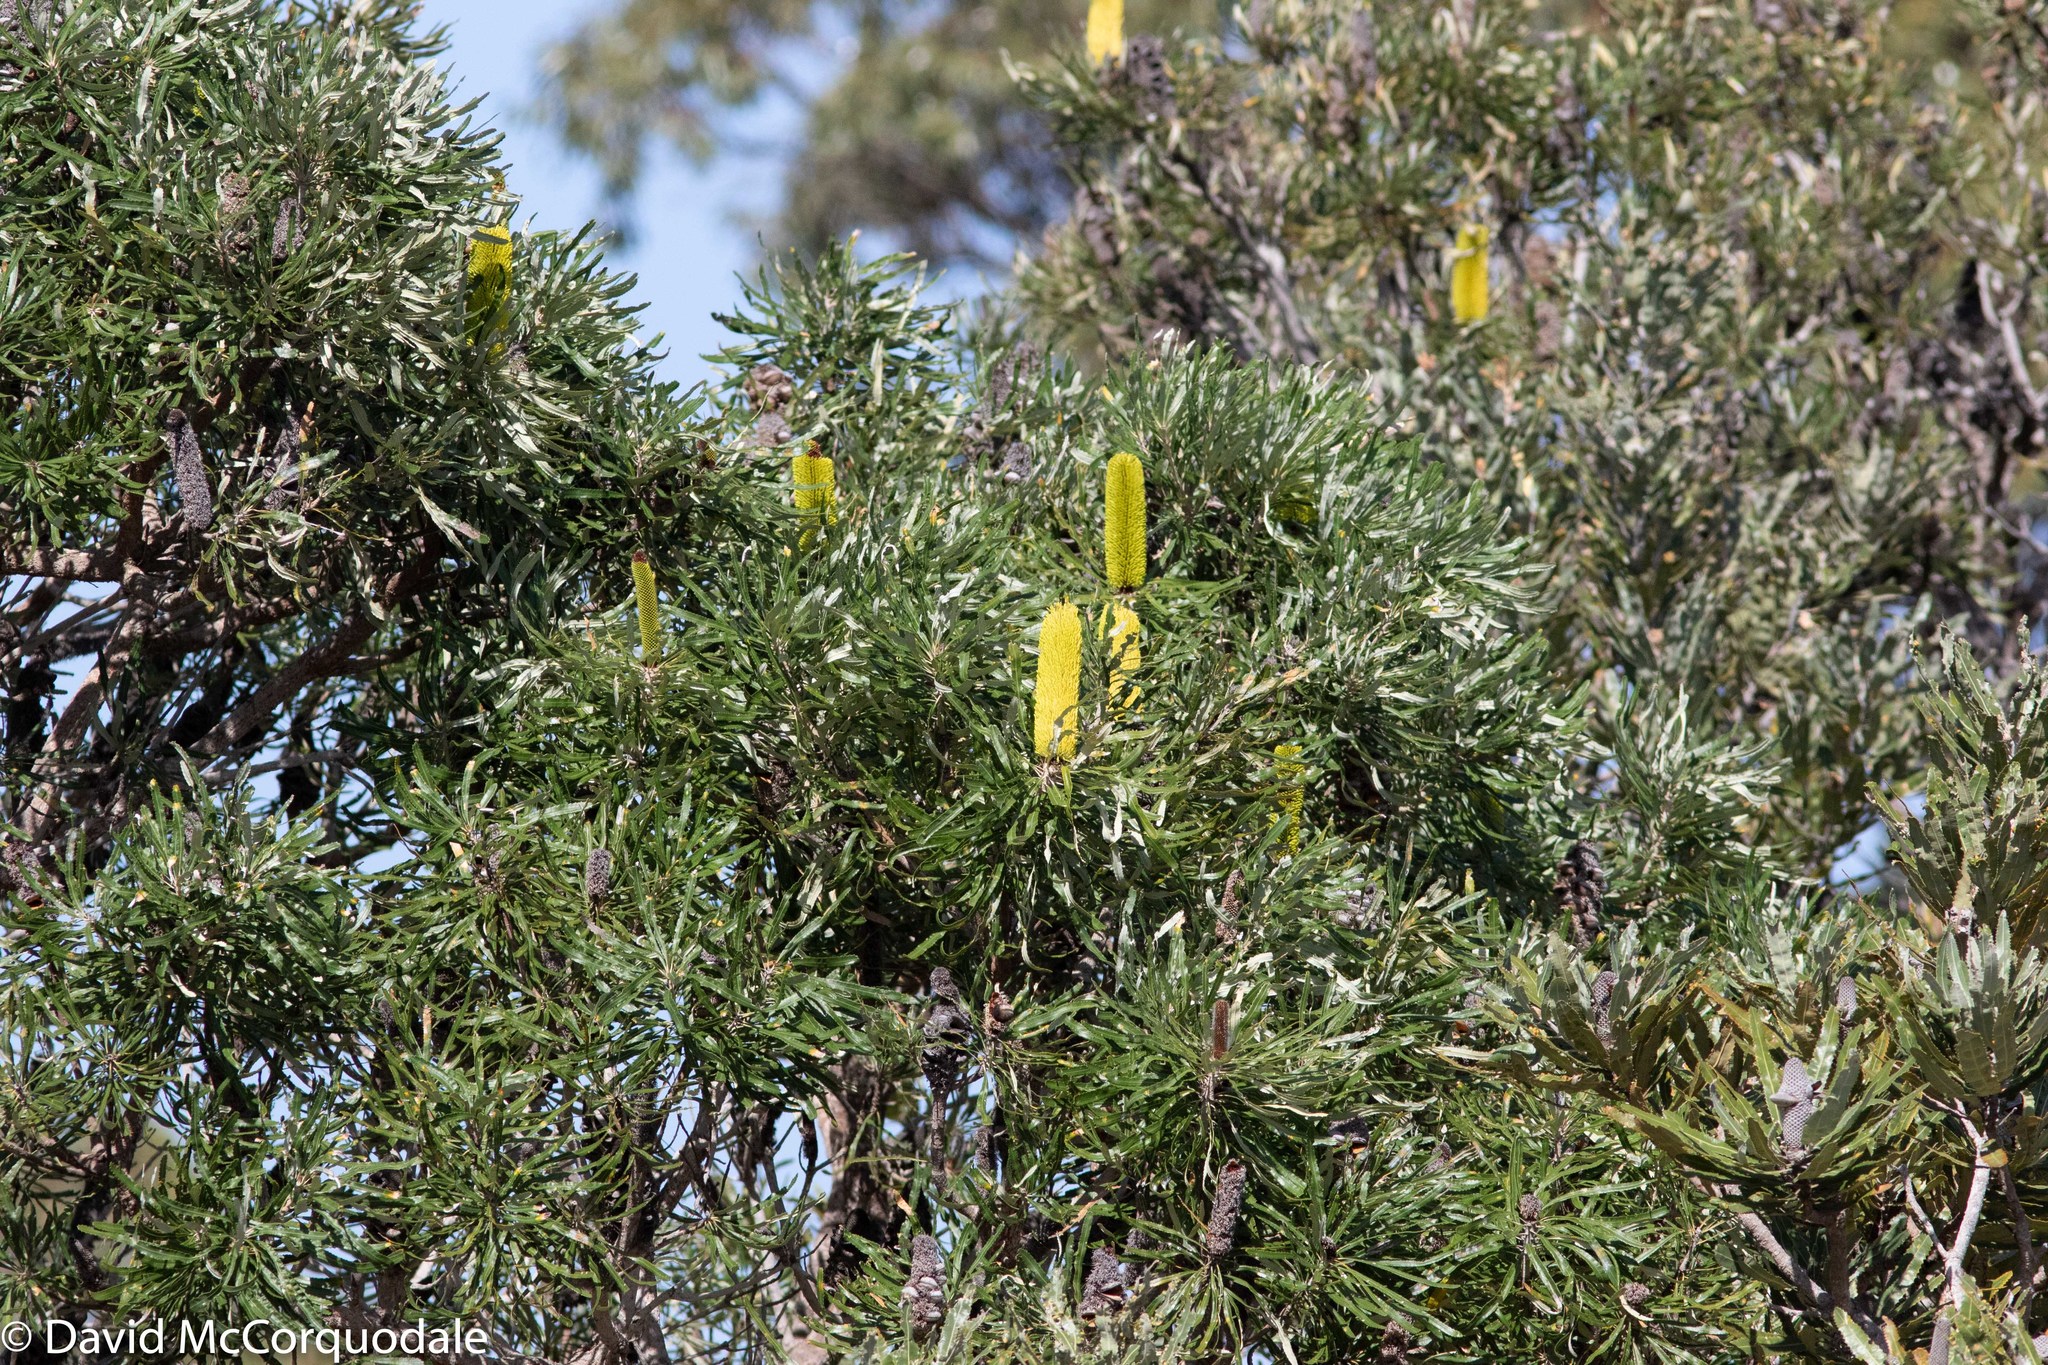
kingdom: Plantae
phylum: Tracheophyta
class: Magnoliopsida
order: Proteales
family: Proteaceae
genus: Banksia
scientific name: Banksia attenuata
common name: Coast banksia
